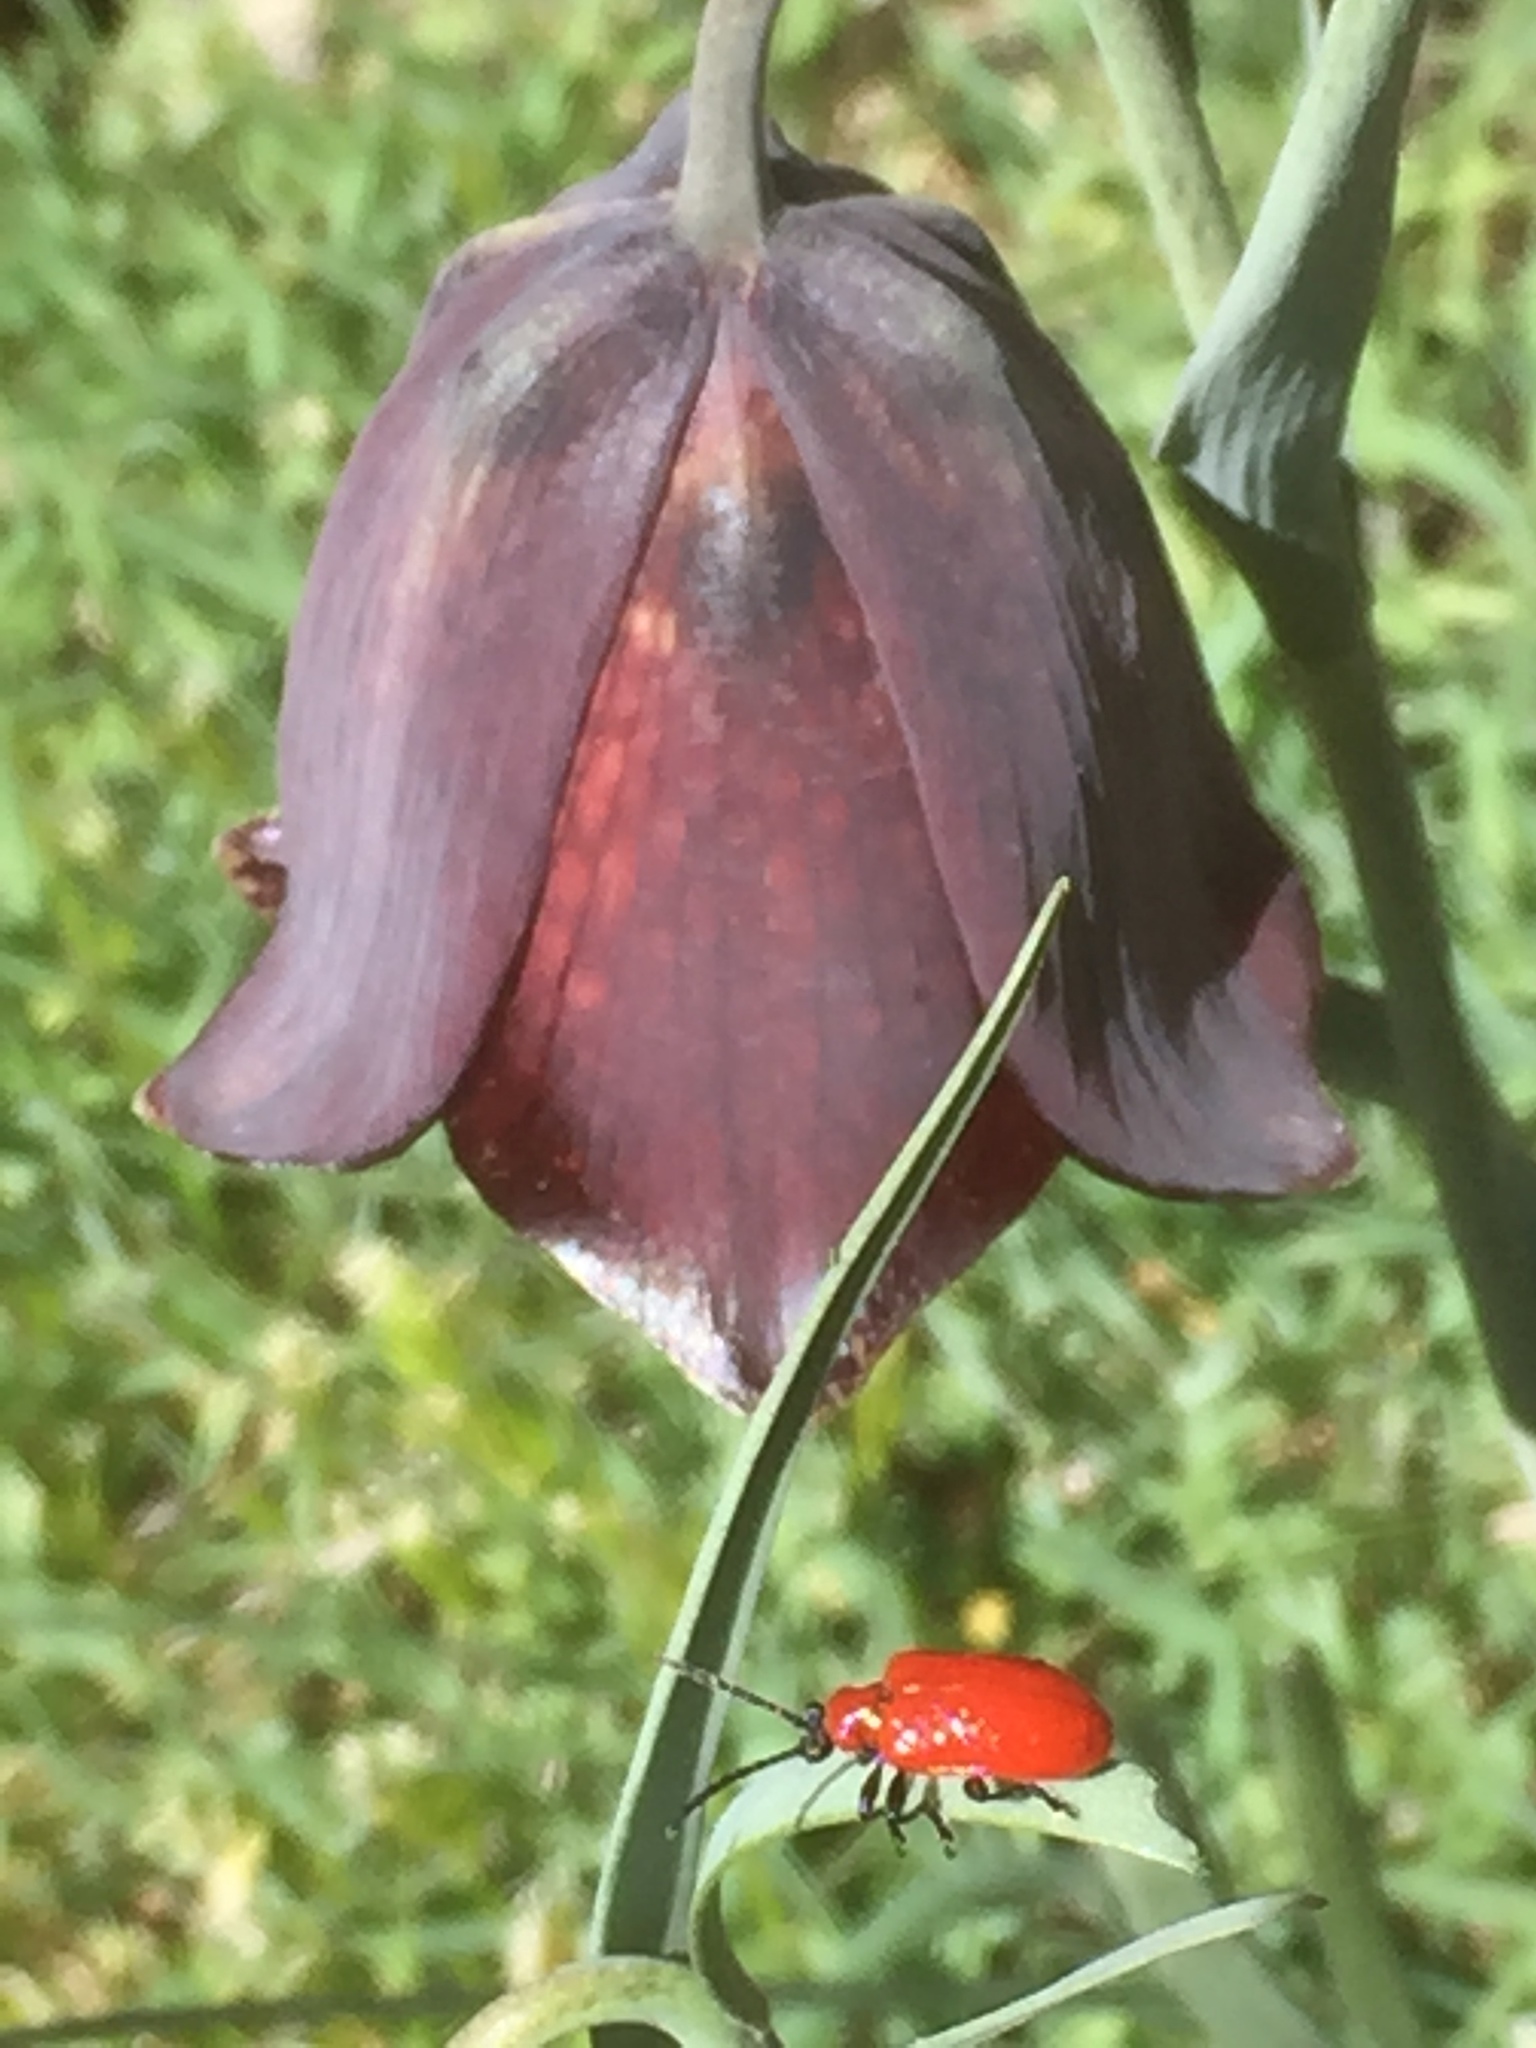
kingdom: Animalia
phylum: Arthropoda
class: Insecta
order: Coleoptera
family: Chrysomelidae
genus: Lilioceris
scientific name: Lilioceris lilii
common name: Lily beetle
